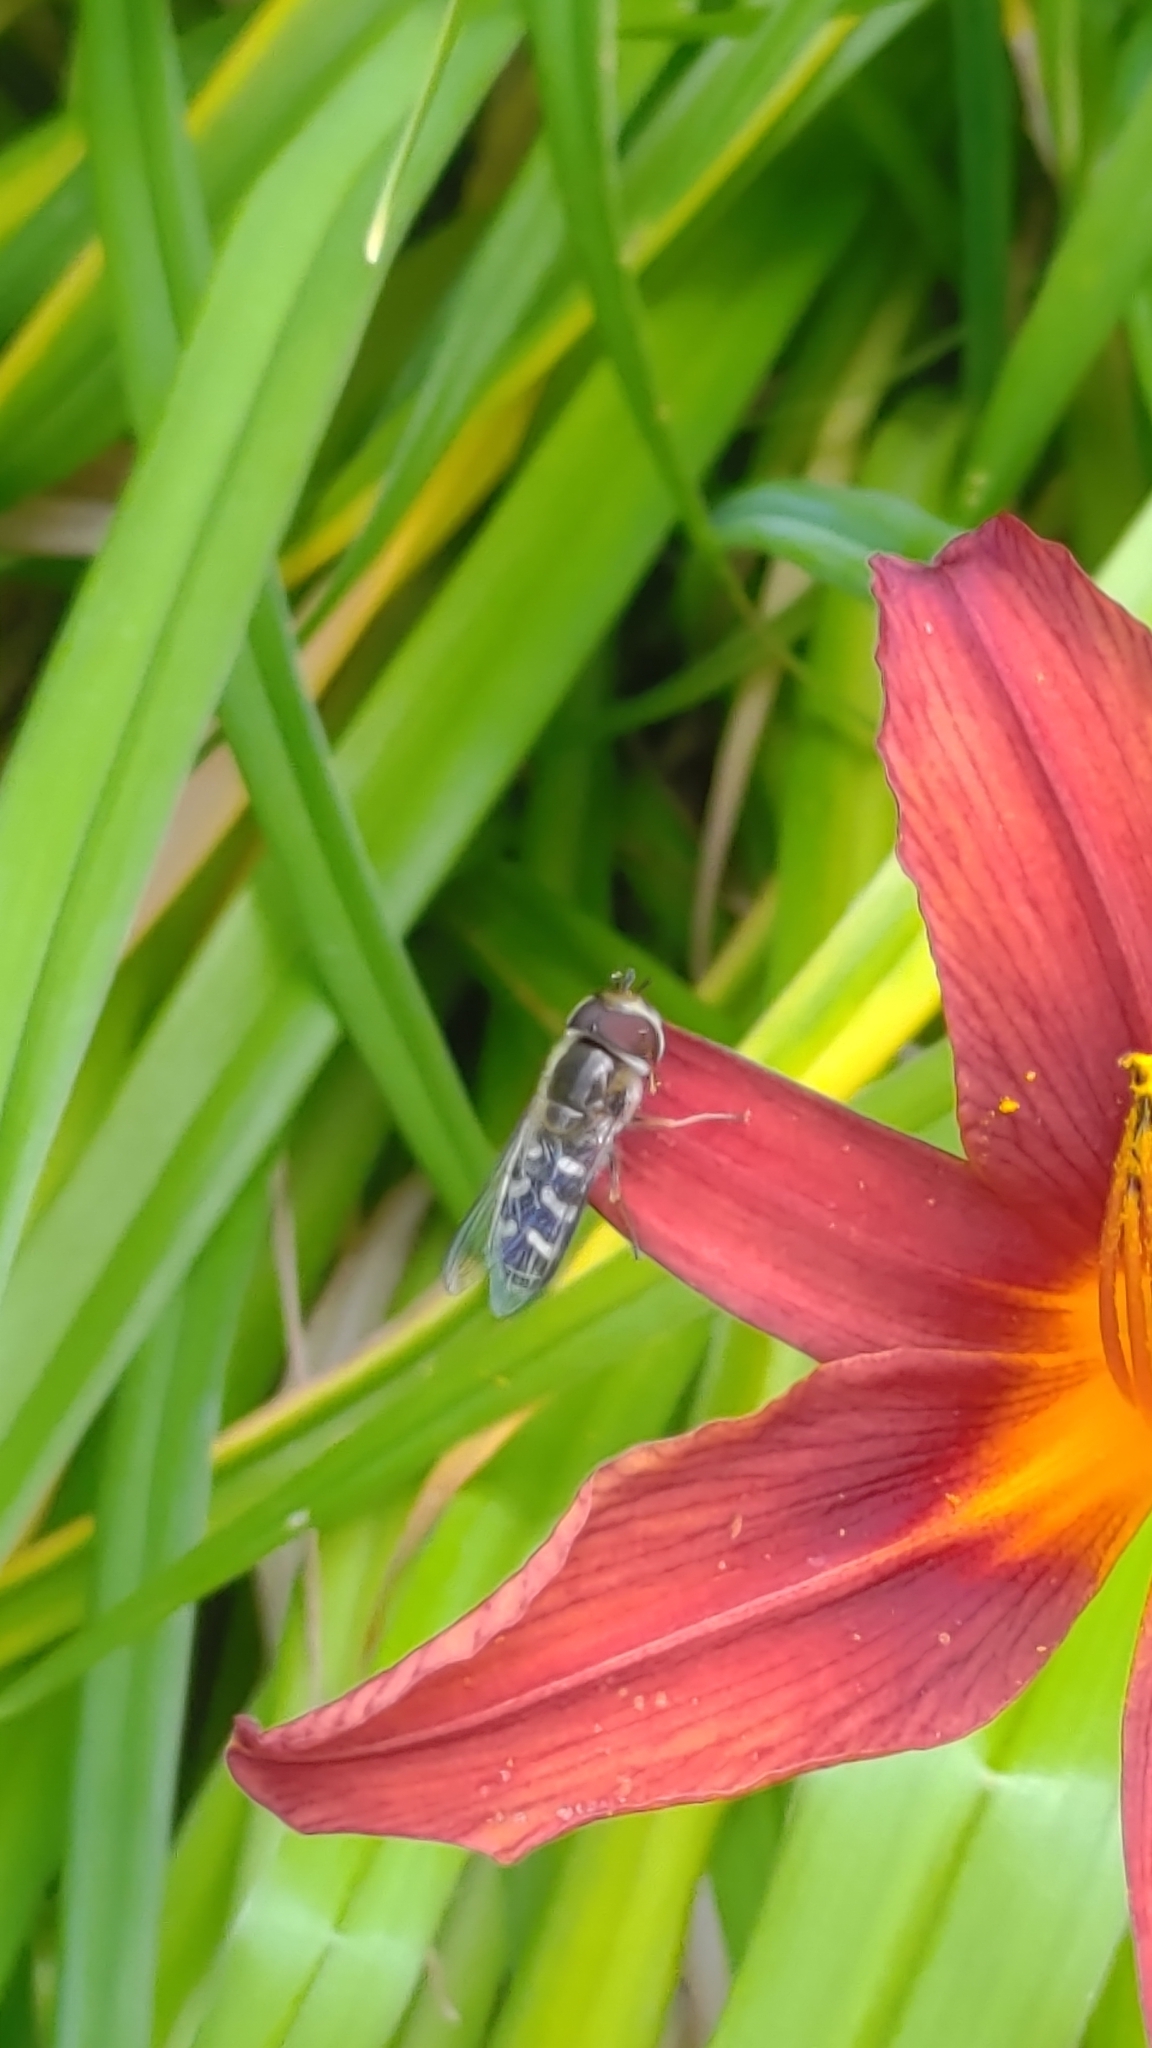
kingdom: Animalia
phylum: Arthropoda
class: Insecta
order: Diptera
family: Syrphidae
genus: Scaeva
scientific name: Scaeva pyrastri
